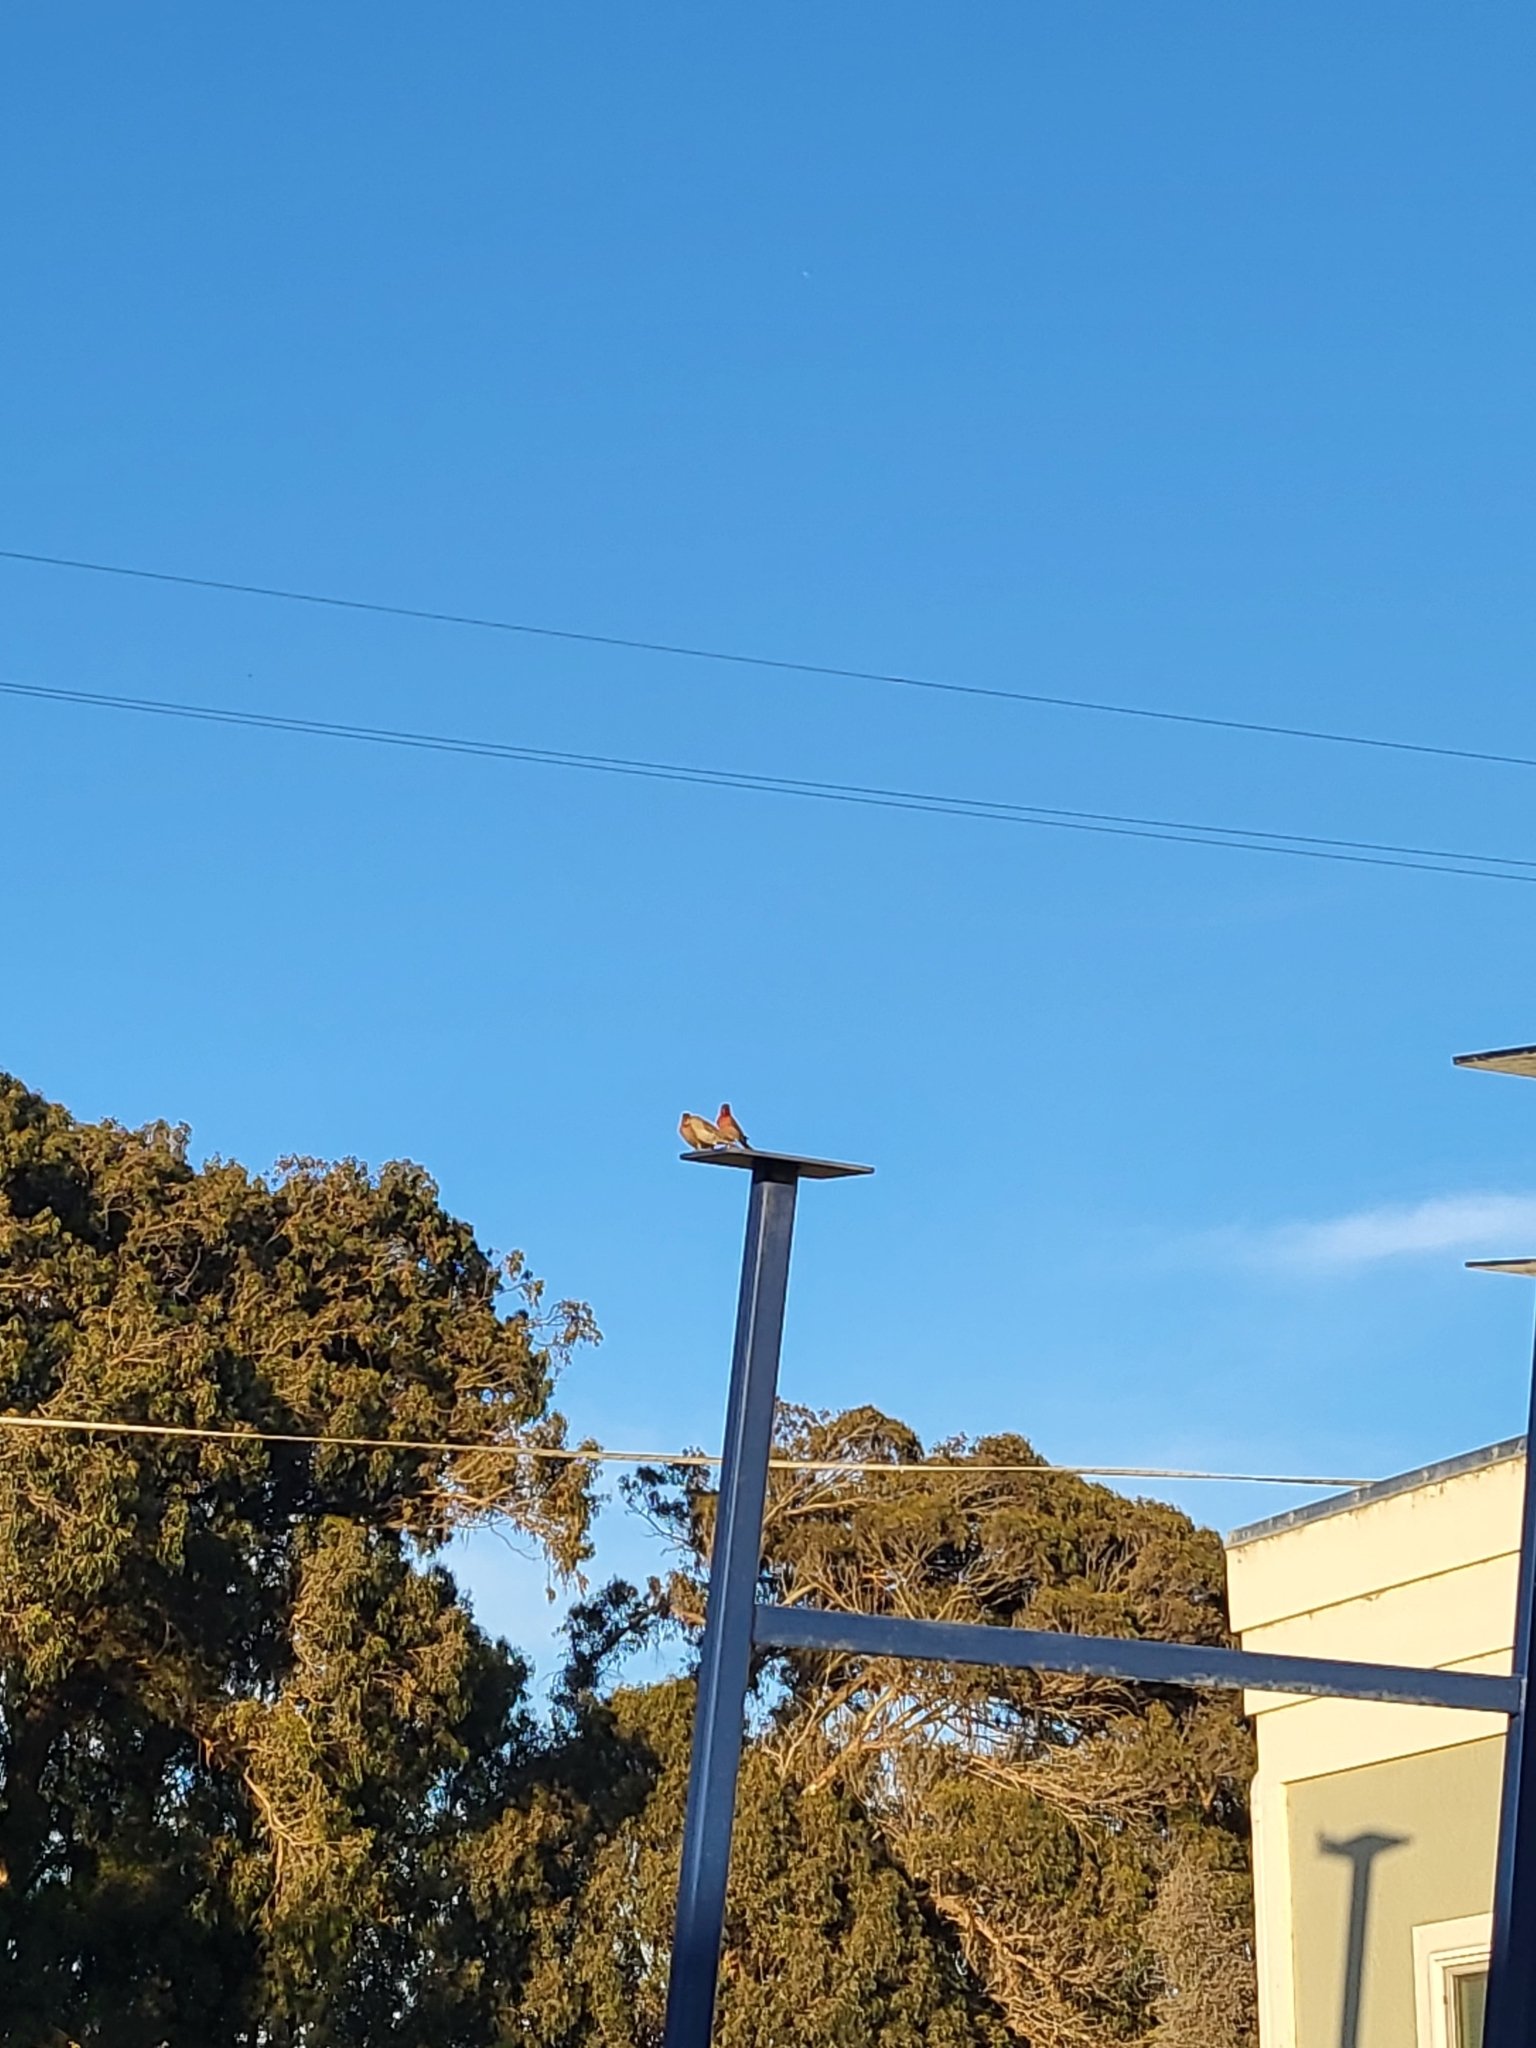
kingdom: Animalia
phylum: Chordata
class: Aves
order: Passeriformes
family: Fringillidae
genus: Haemorhous
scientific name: Haemorhous mexicanus
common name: House finch
